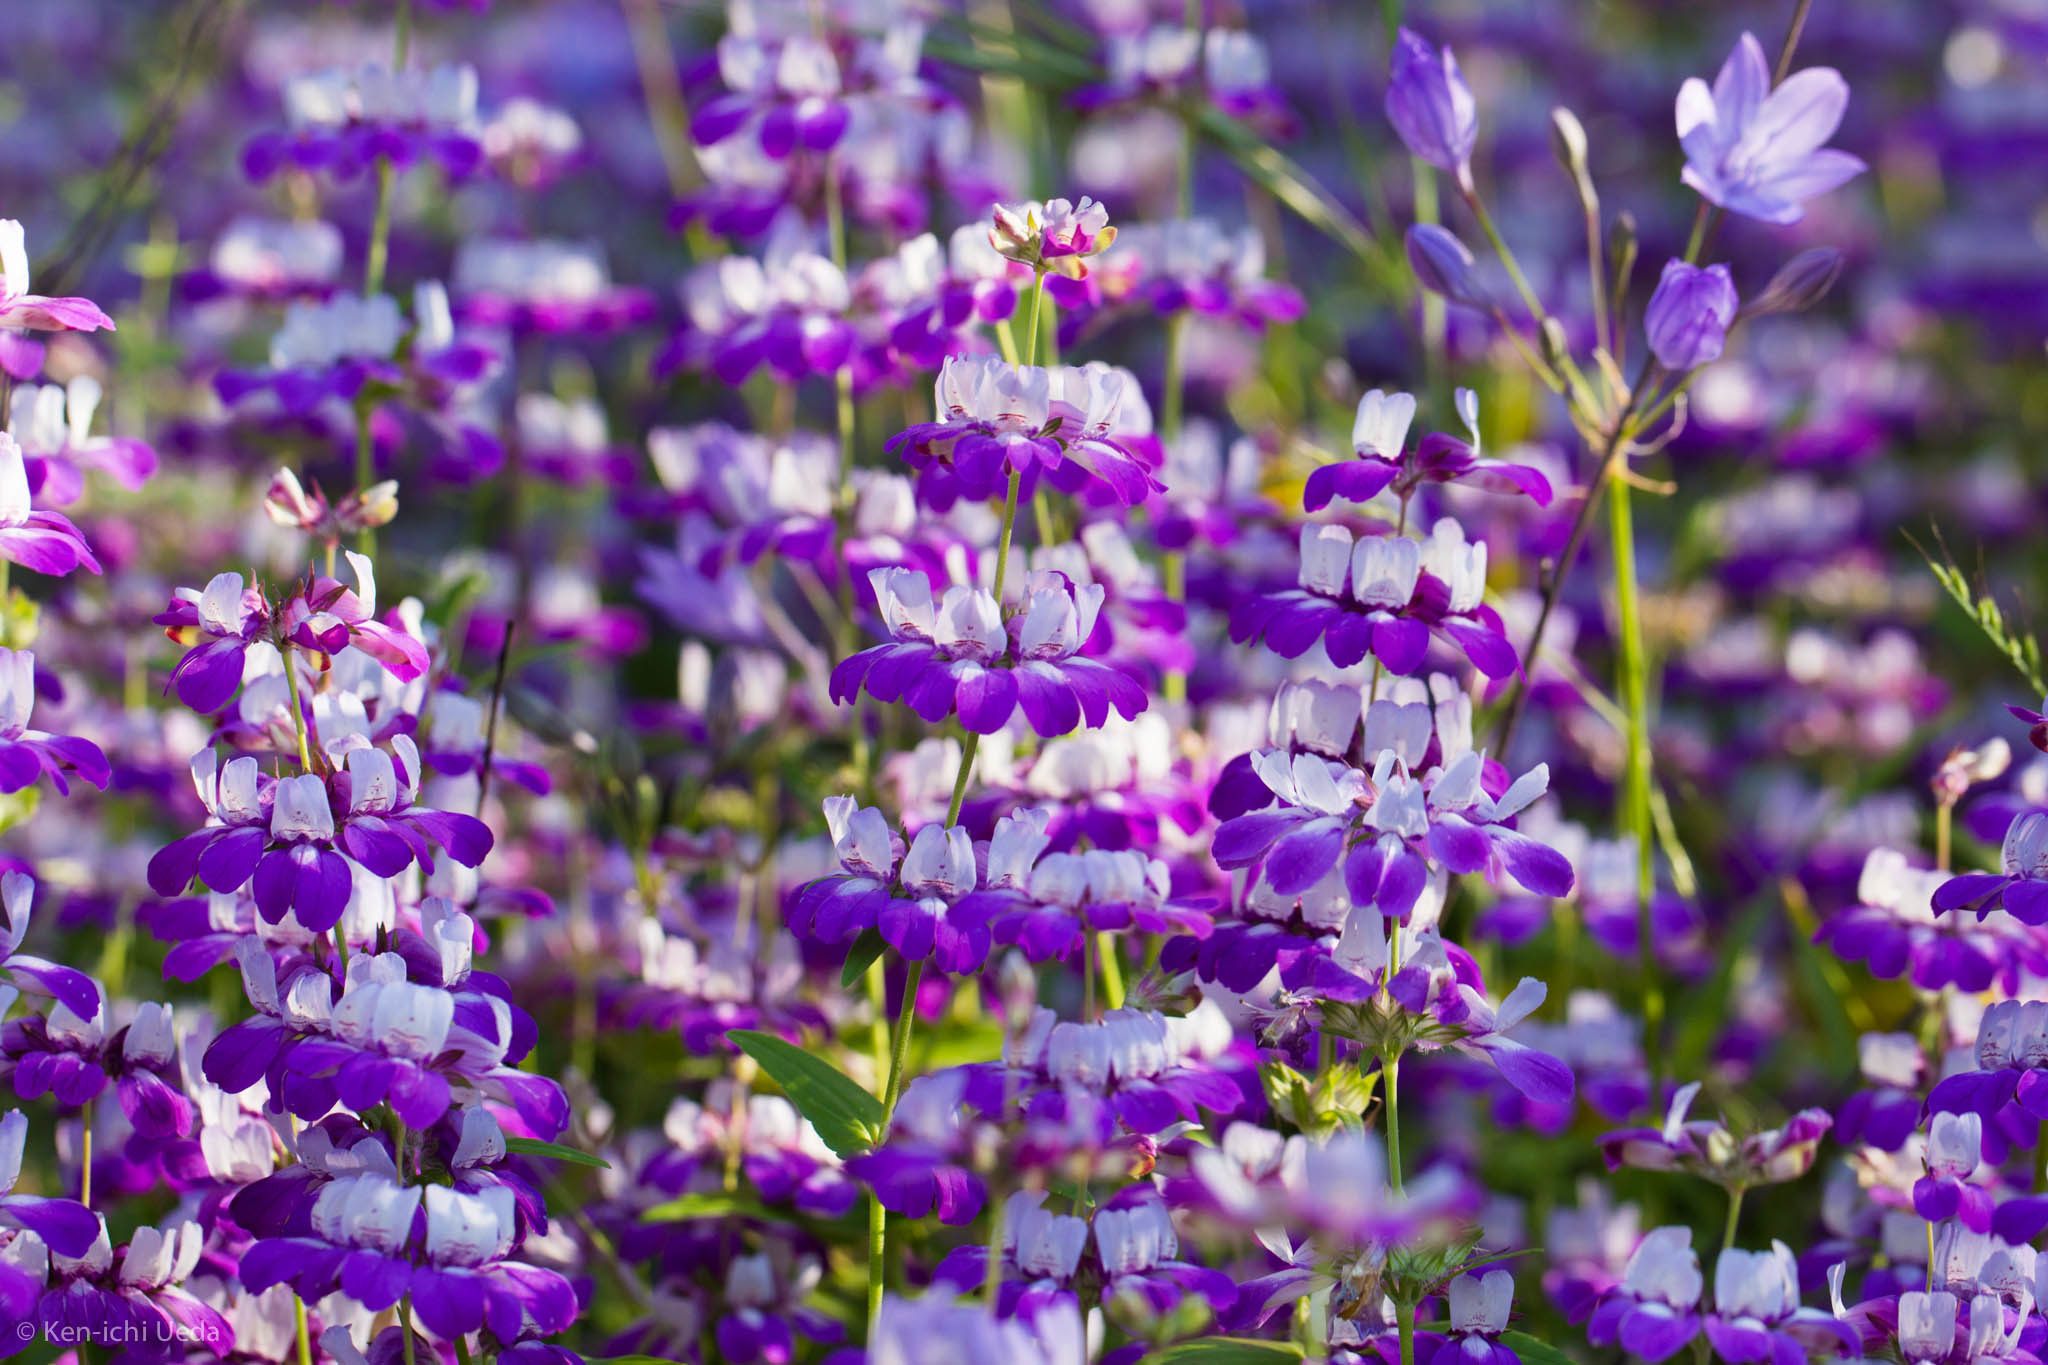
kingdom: Plantae
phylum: Tracheophyta
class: Magnoliopsida
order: Lamiales
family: Plantaginaceae
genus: Collinsia
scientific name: Collinsia heterophylla
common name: Chinese-houses
